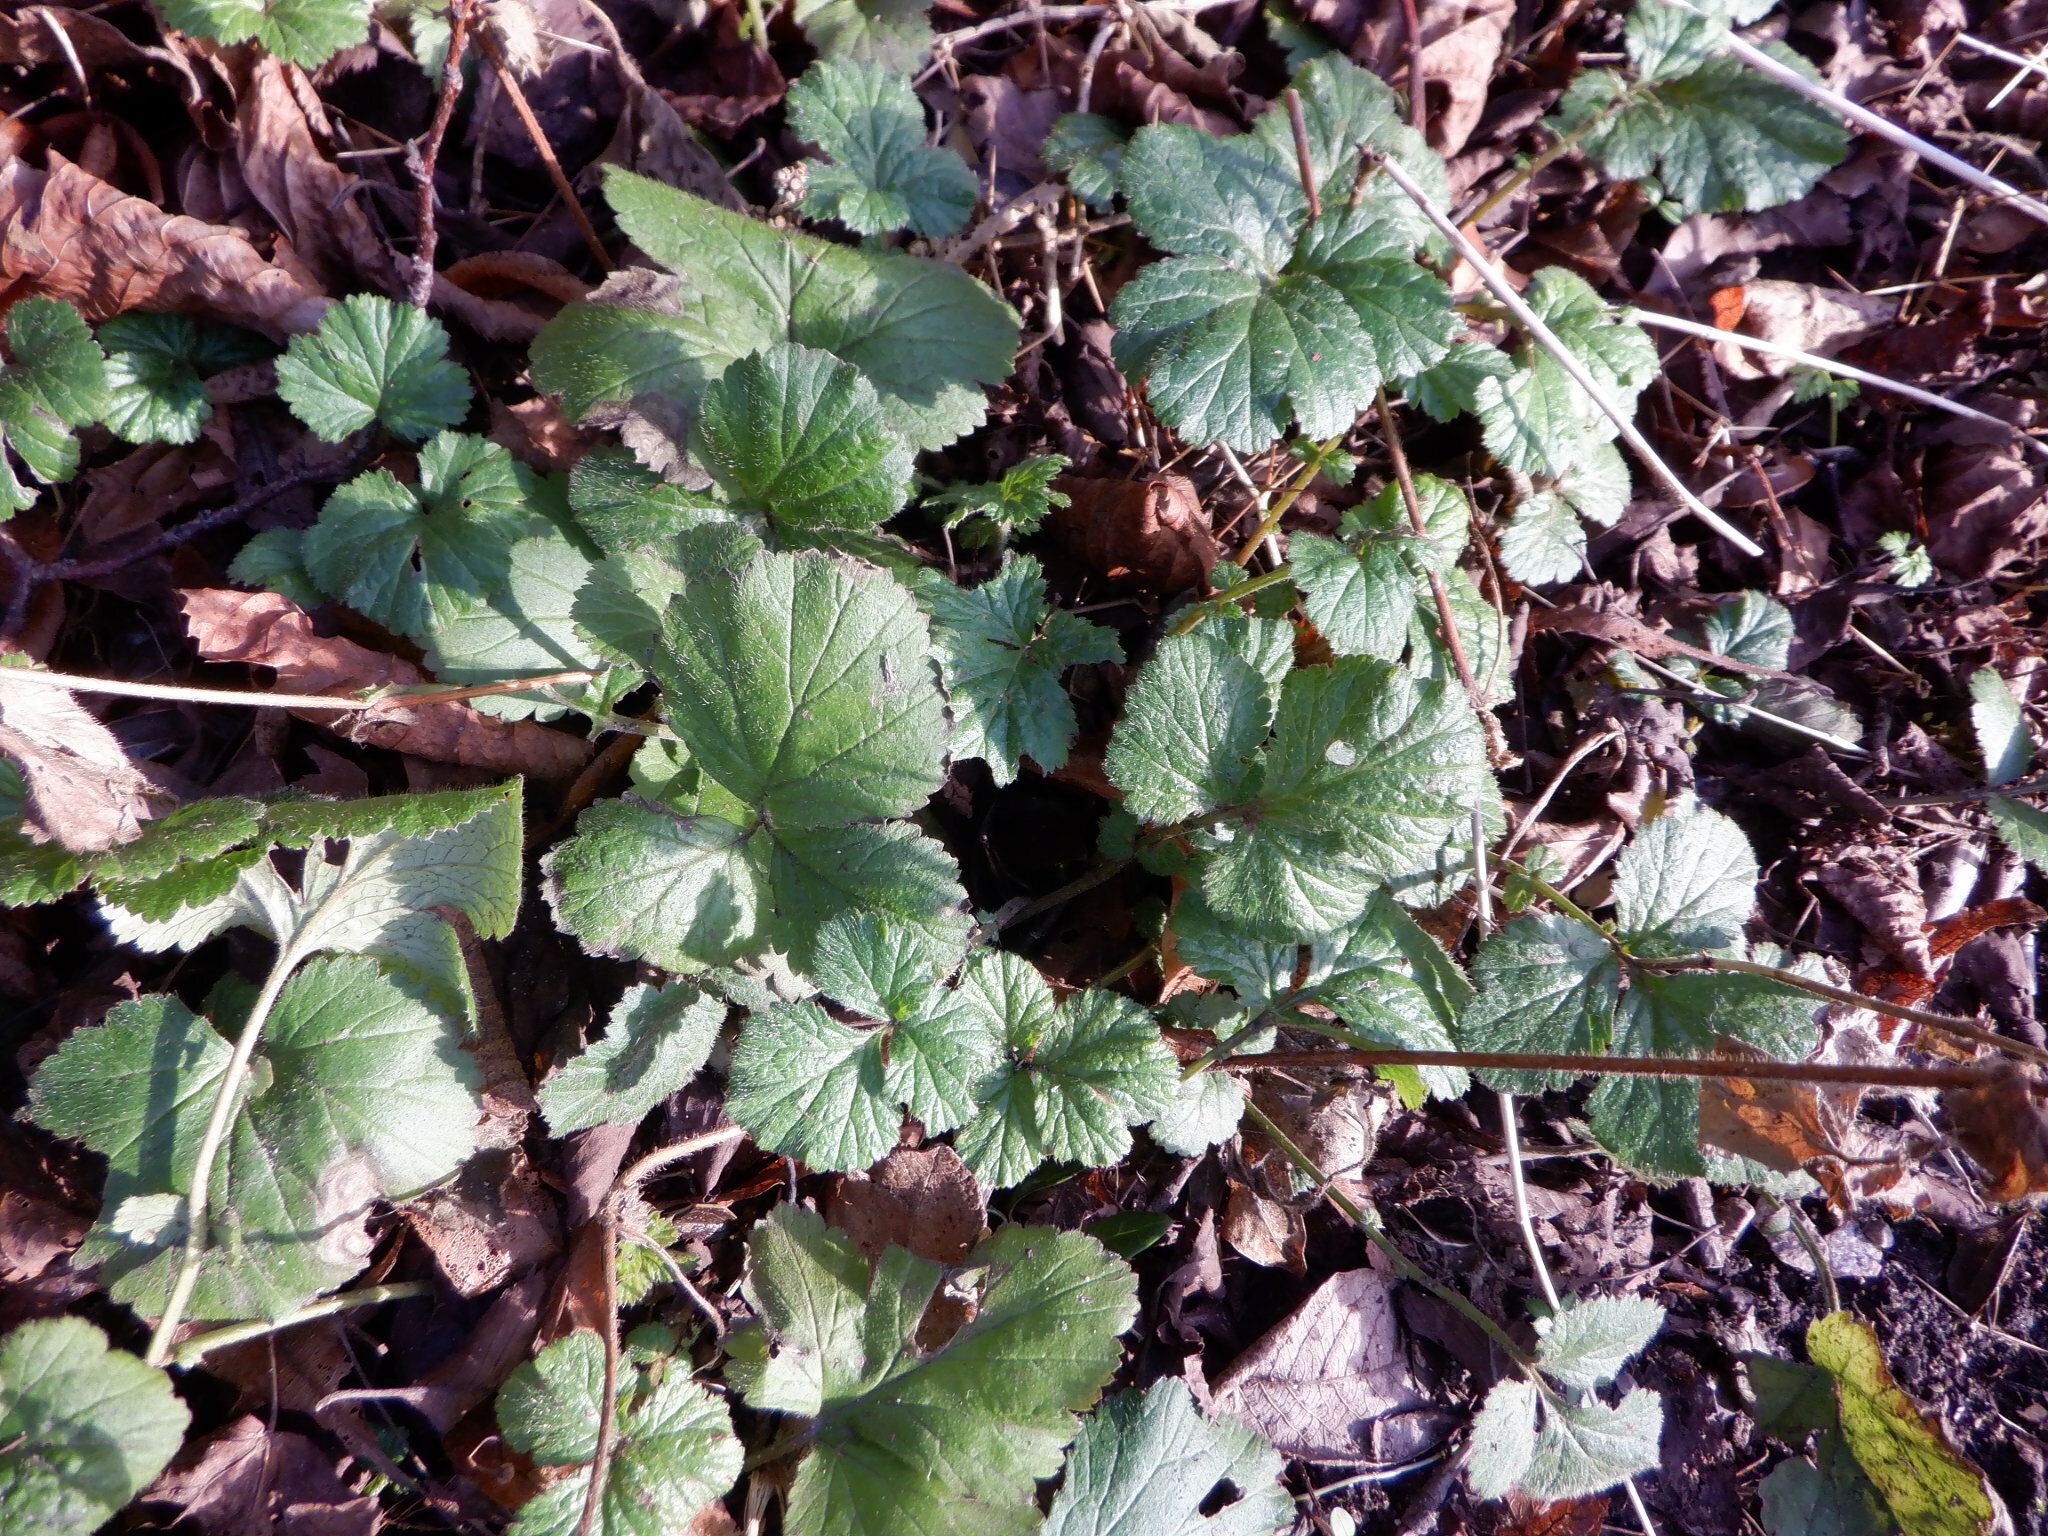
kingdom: Plantae
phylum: Tracheophyta
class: Magnoliopsida
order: Rosales
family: Rosaceae
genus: Geum
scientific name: Geum urbanum
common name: Wood avens
